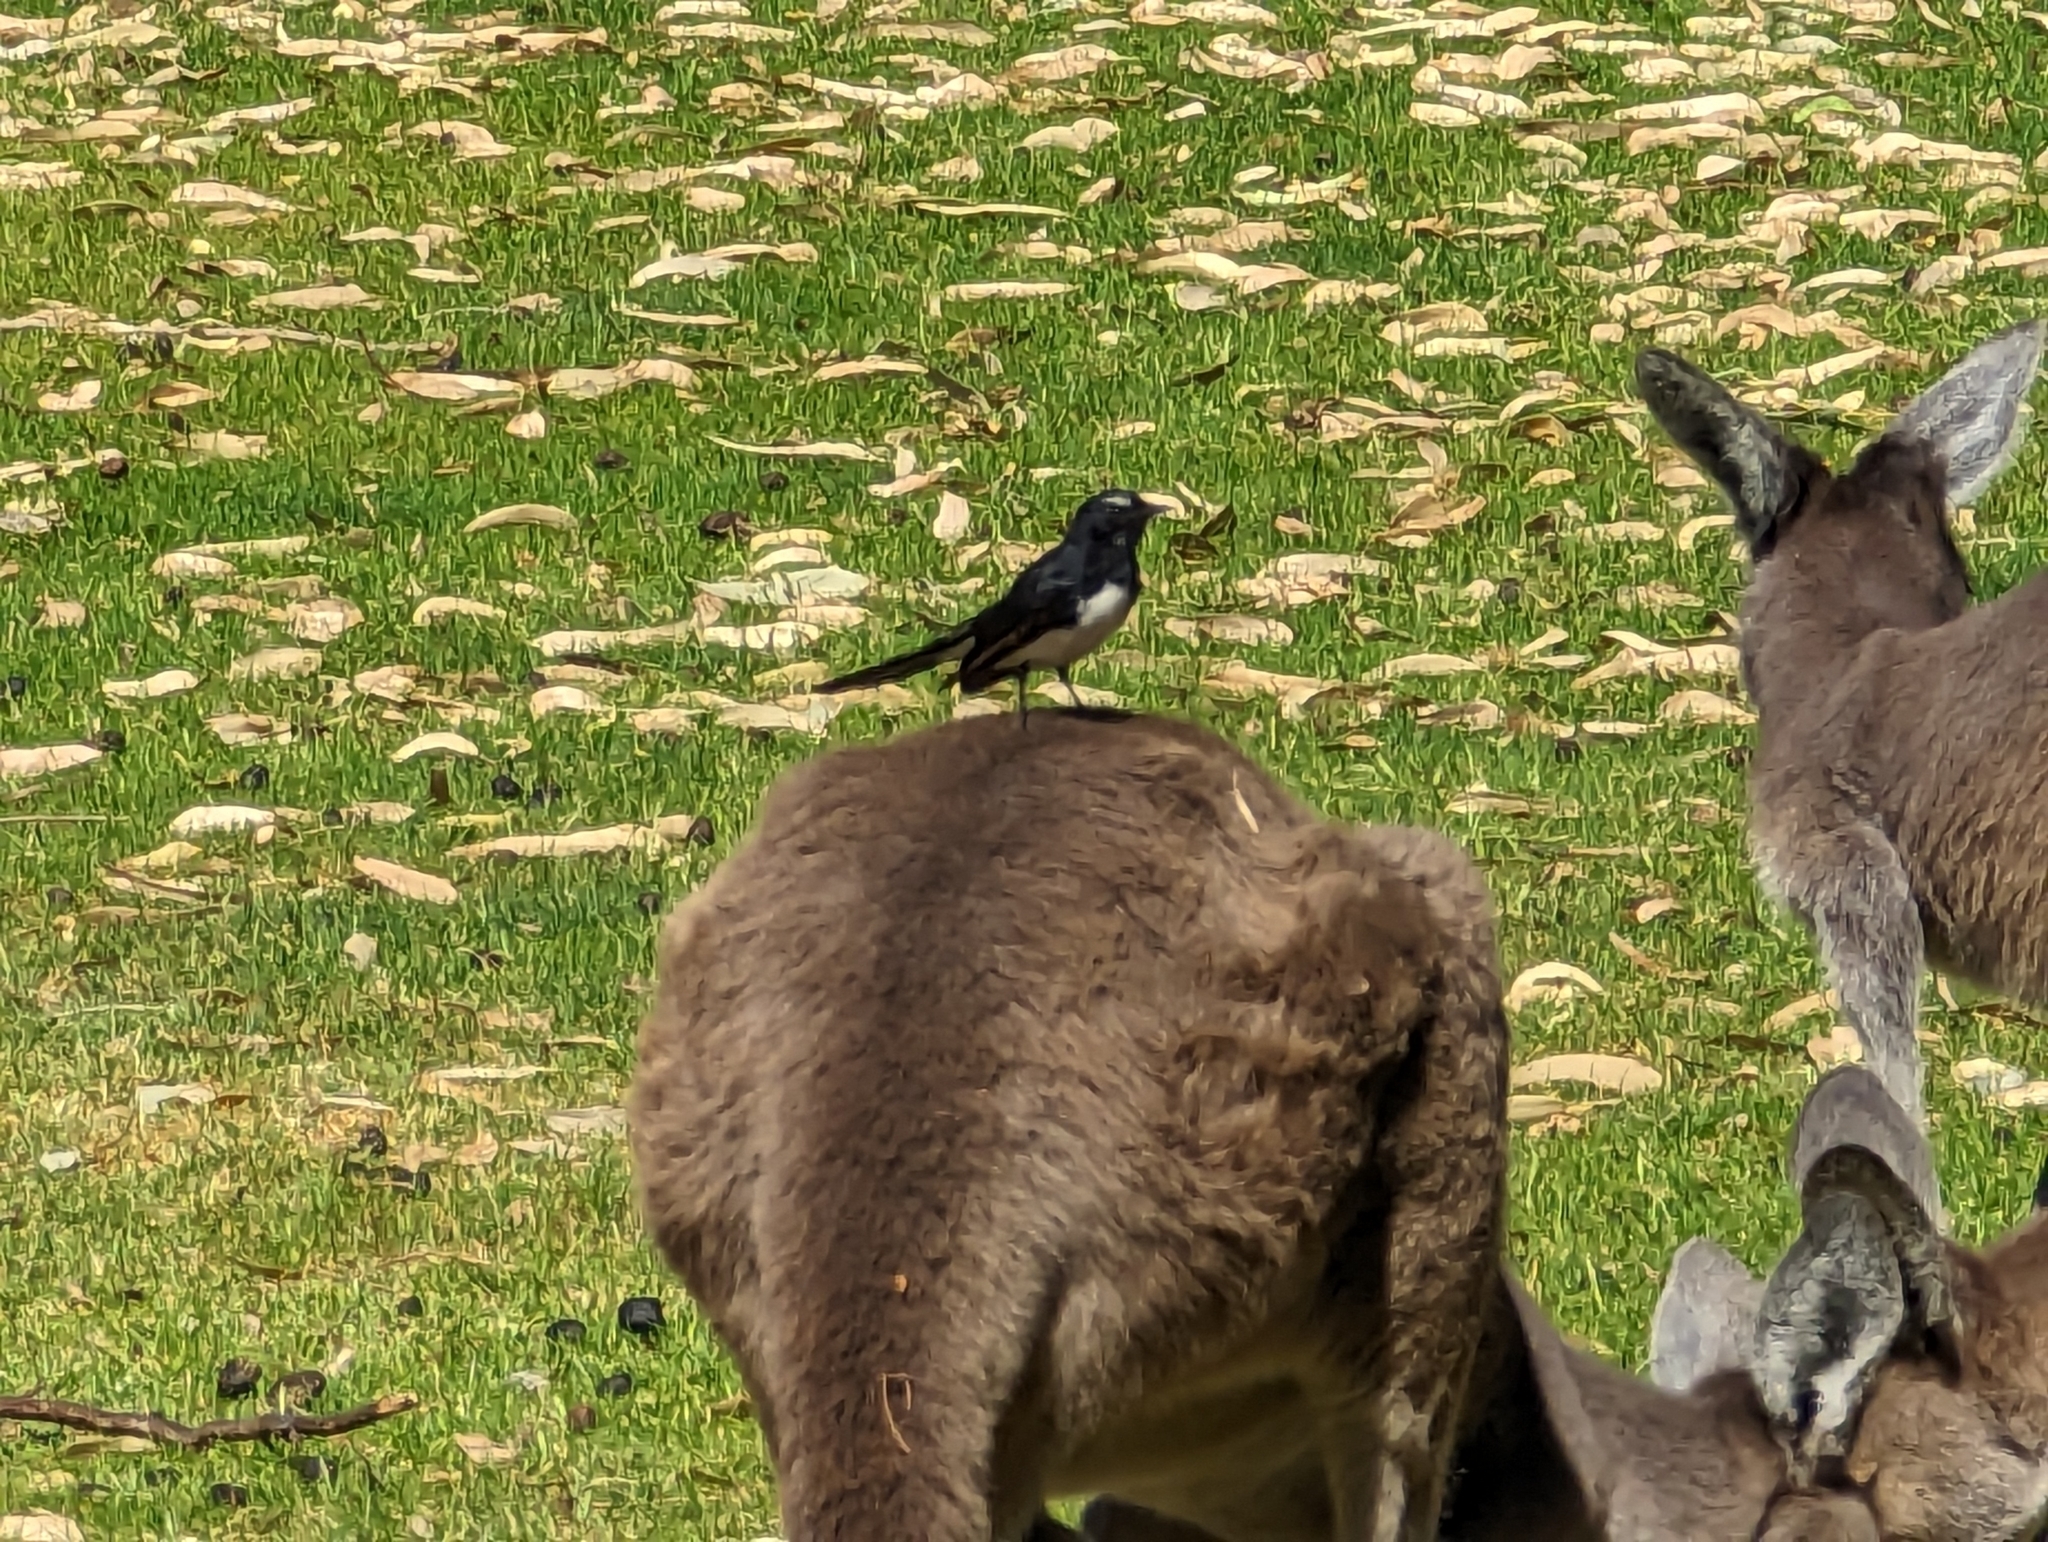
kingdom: Animalia
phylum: Chordata
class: Aves
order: Passeriformes
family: Rhipiduridae
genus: Rhipidura
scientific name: Rhipidura leucophrys
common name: Willie wagtail
